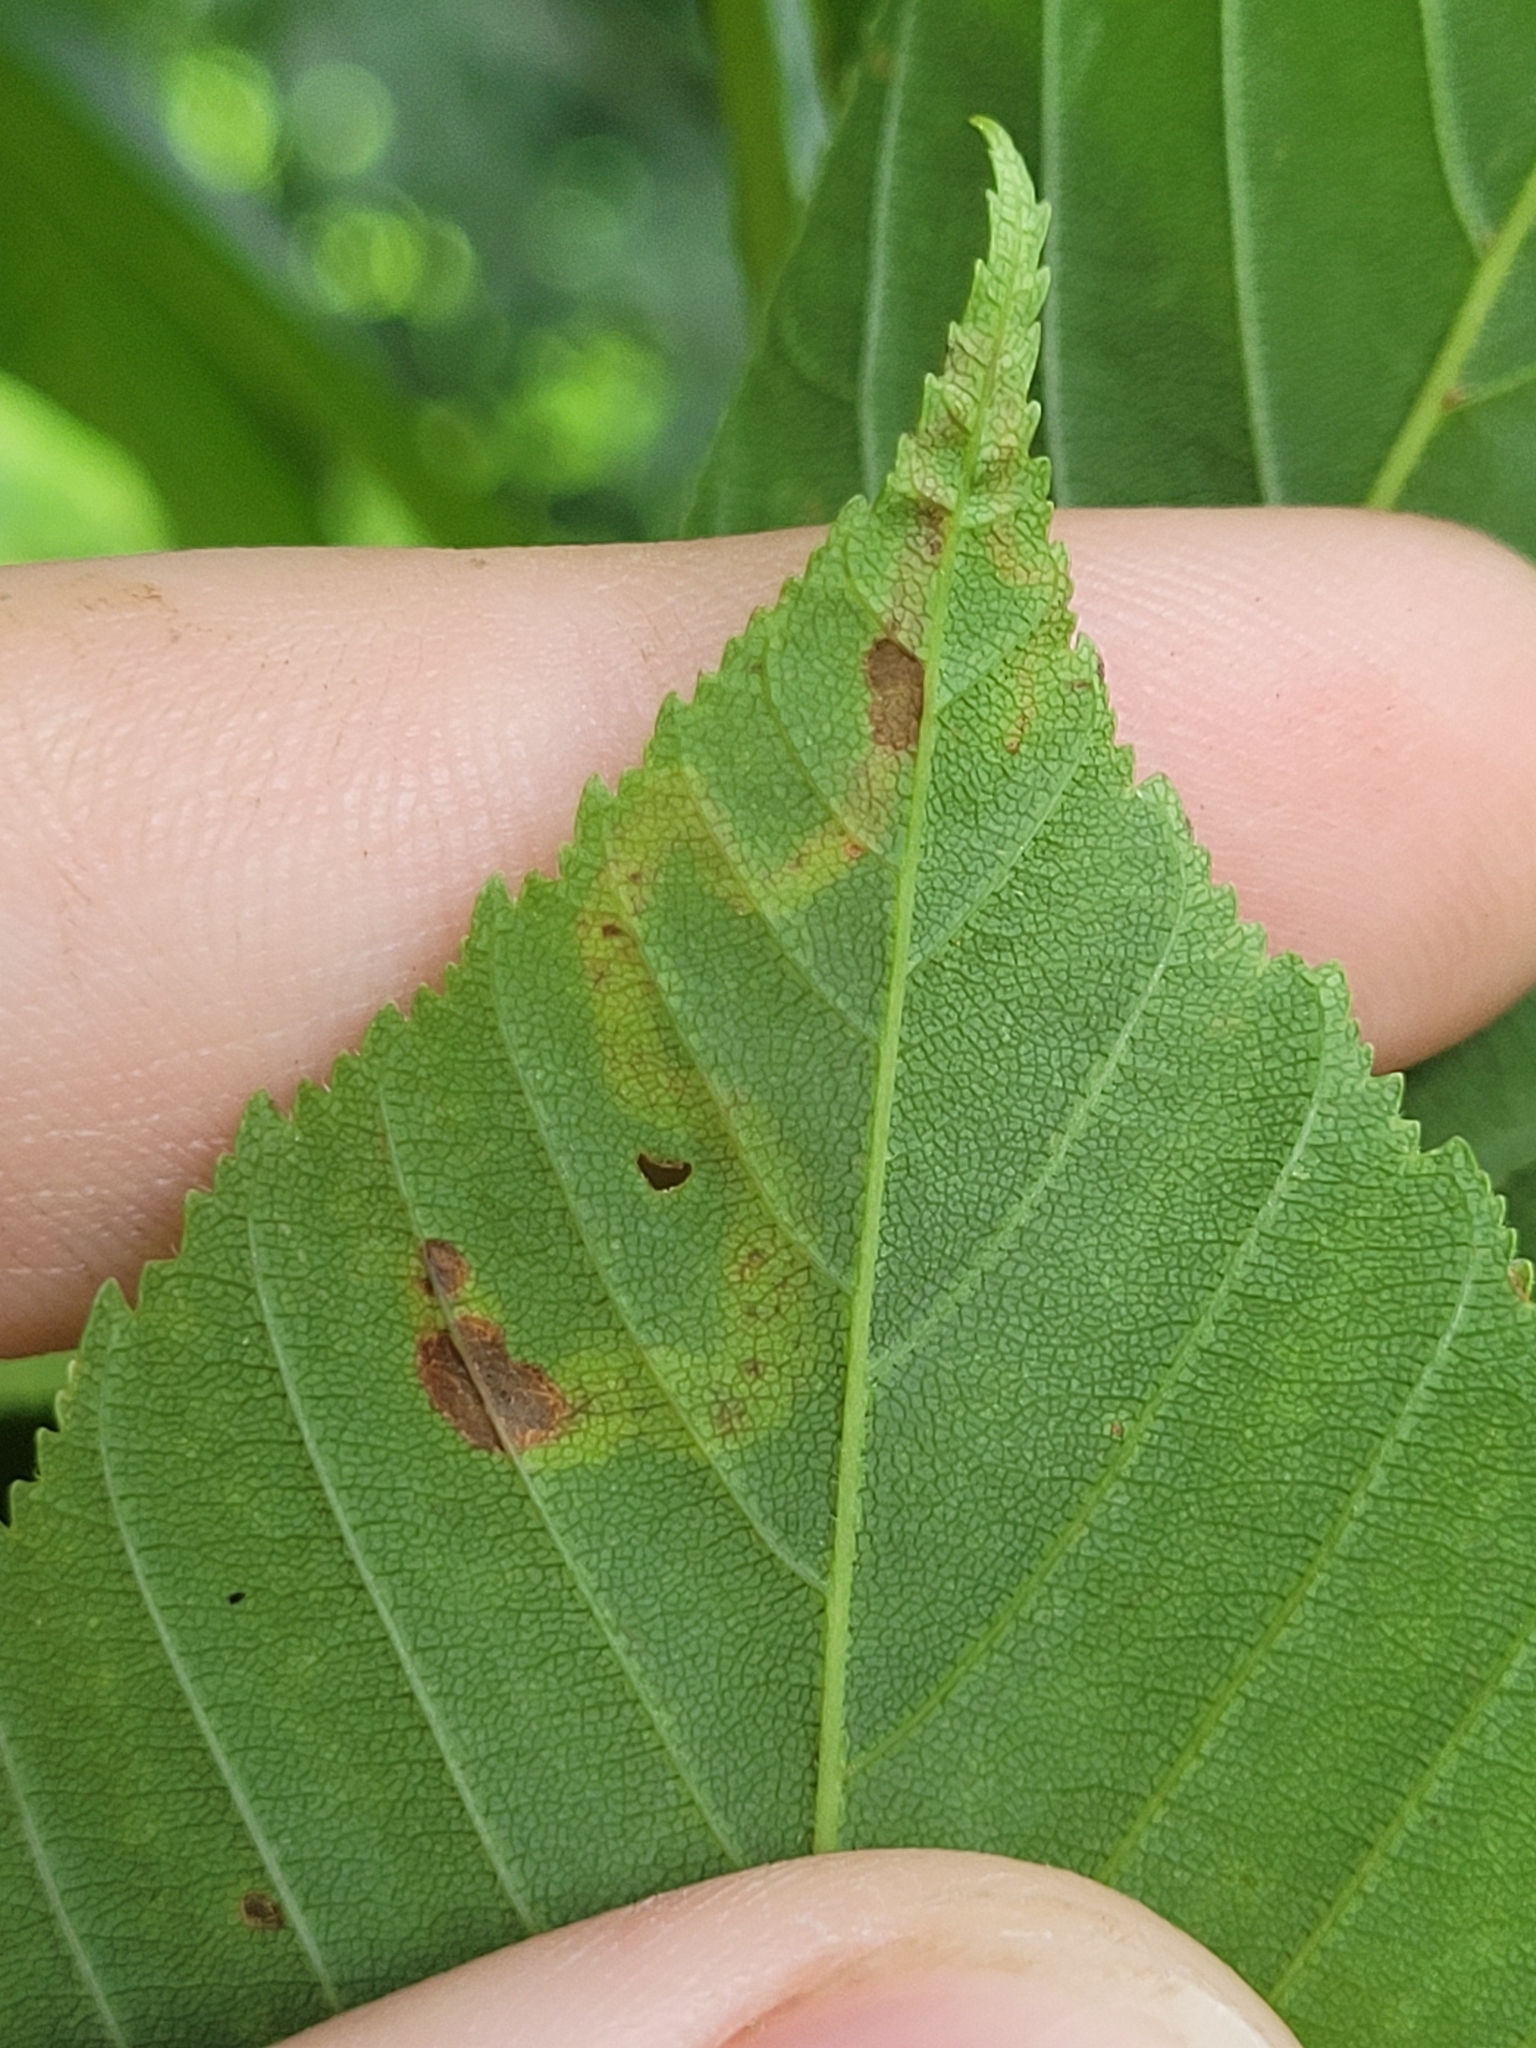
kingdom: Animalia
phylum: Arthropoda
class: Insecta
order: Diptera
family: Agromyzidae
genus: Phytomyza
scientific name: Phytomyza aesculi
